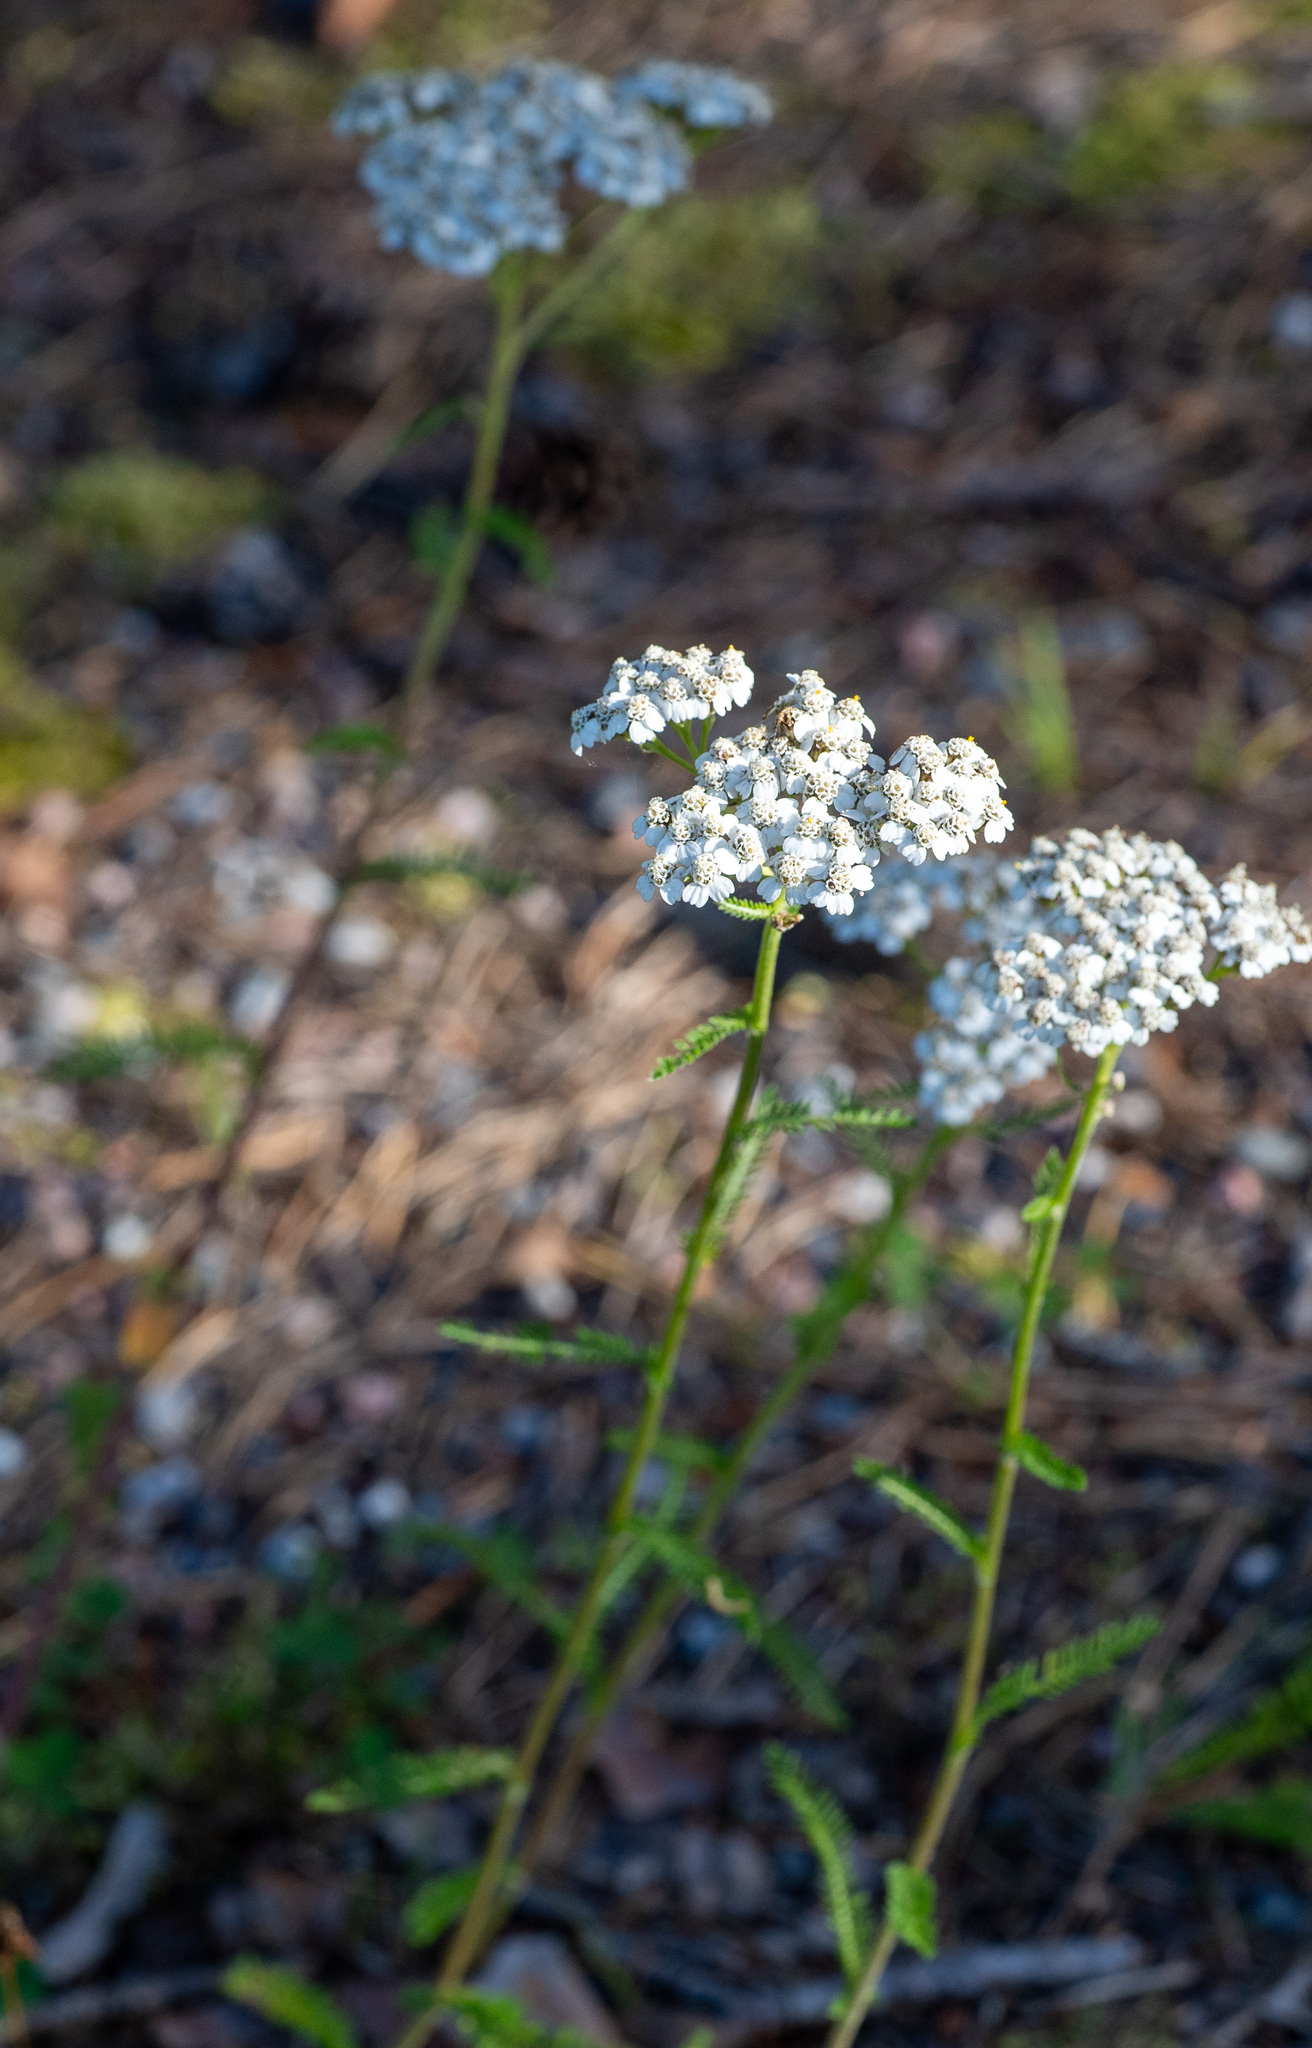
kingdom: Plantae
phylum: Tracheophyta
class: Magnoliopsida
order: Asterales
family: Asteraceae
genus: Achillea
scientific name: Achillea millefolium
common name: Yarrow
